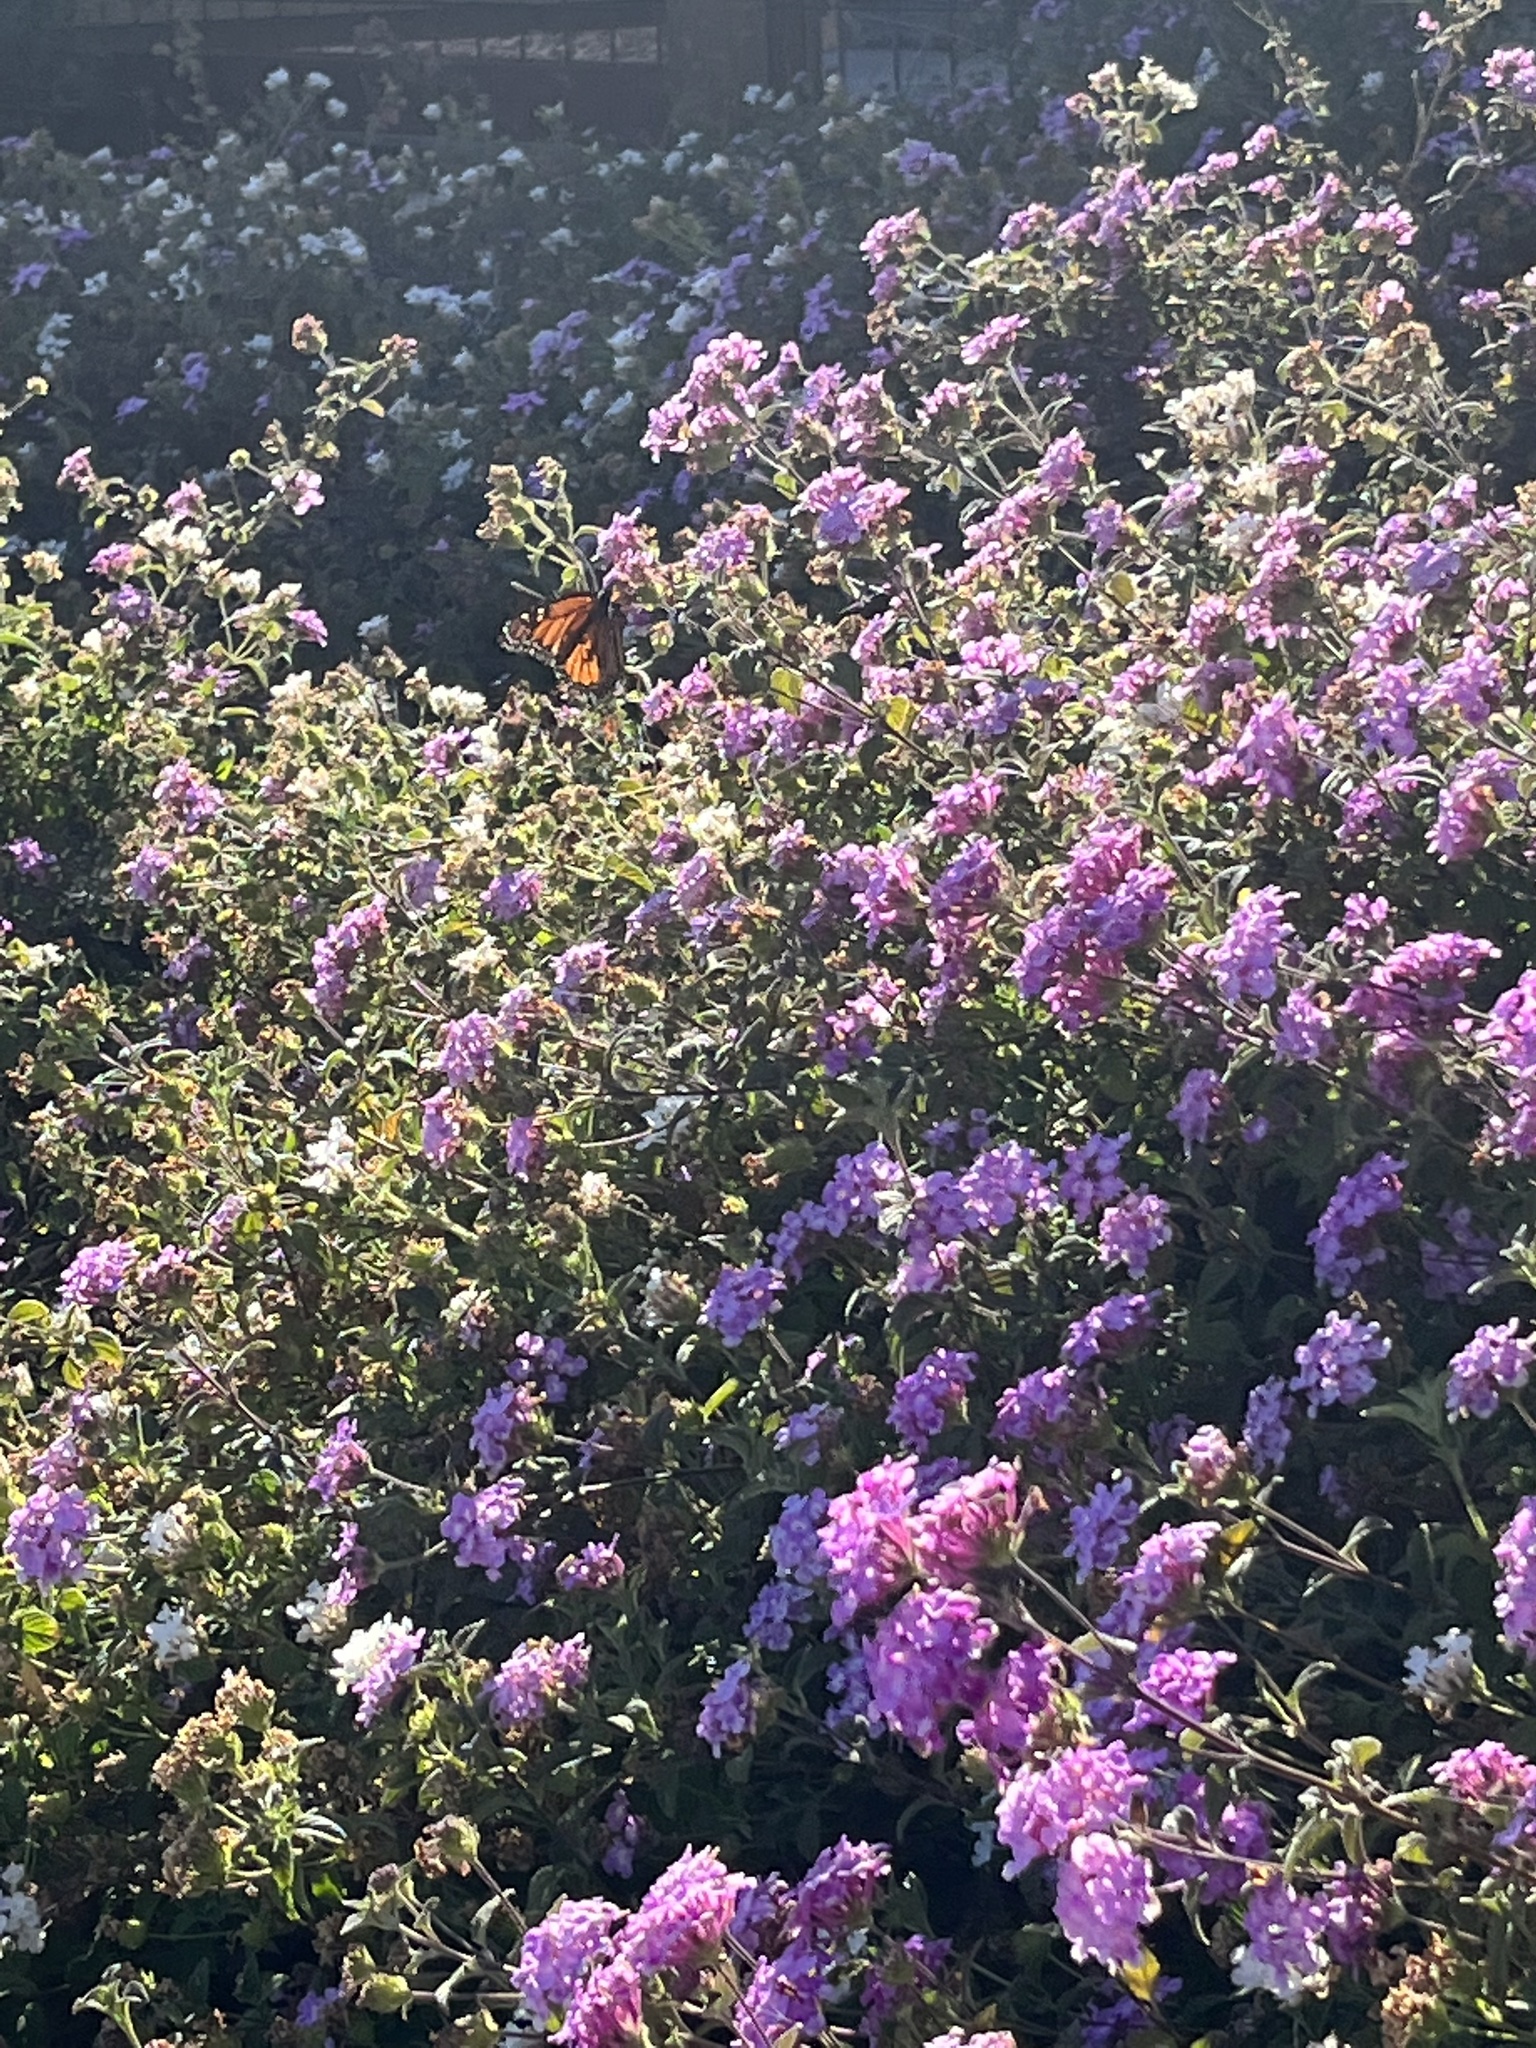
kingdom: Animalia
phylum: Arthropoda
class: Insecta
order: Lepidoptera
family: Nymphalidae
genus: Danaus
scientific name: Danaus plexippus
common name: Monarch
